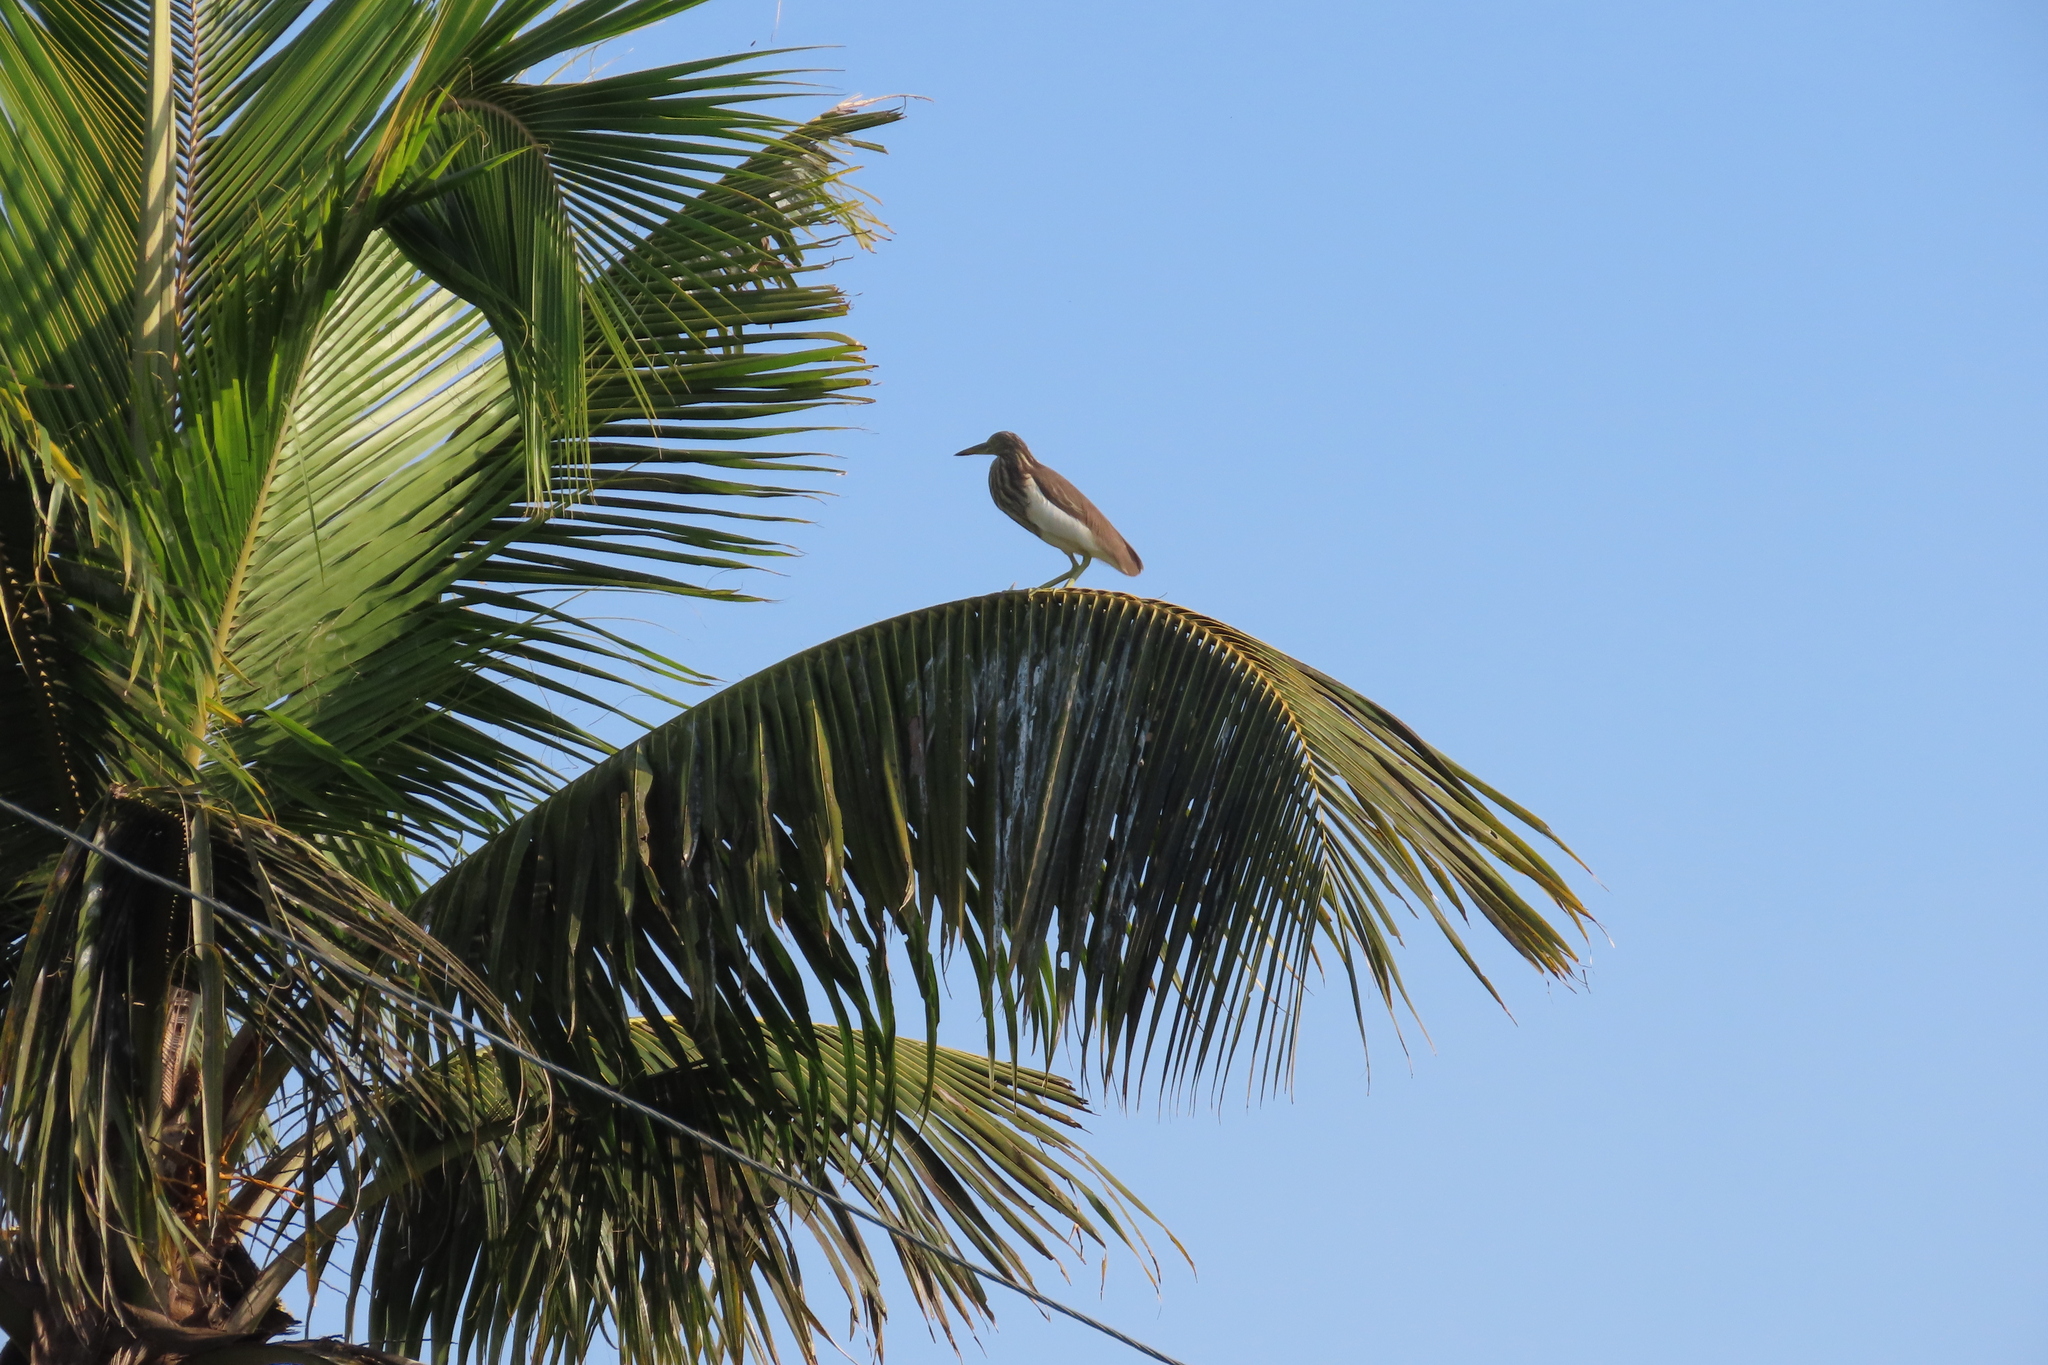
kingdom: Animalia
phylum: Chordata
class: Aves
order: Pelecaniformes
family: Ardeidae
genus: Ardeola
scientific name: Ardeola grayii
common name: Indian pond heron
